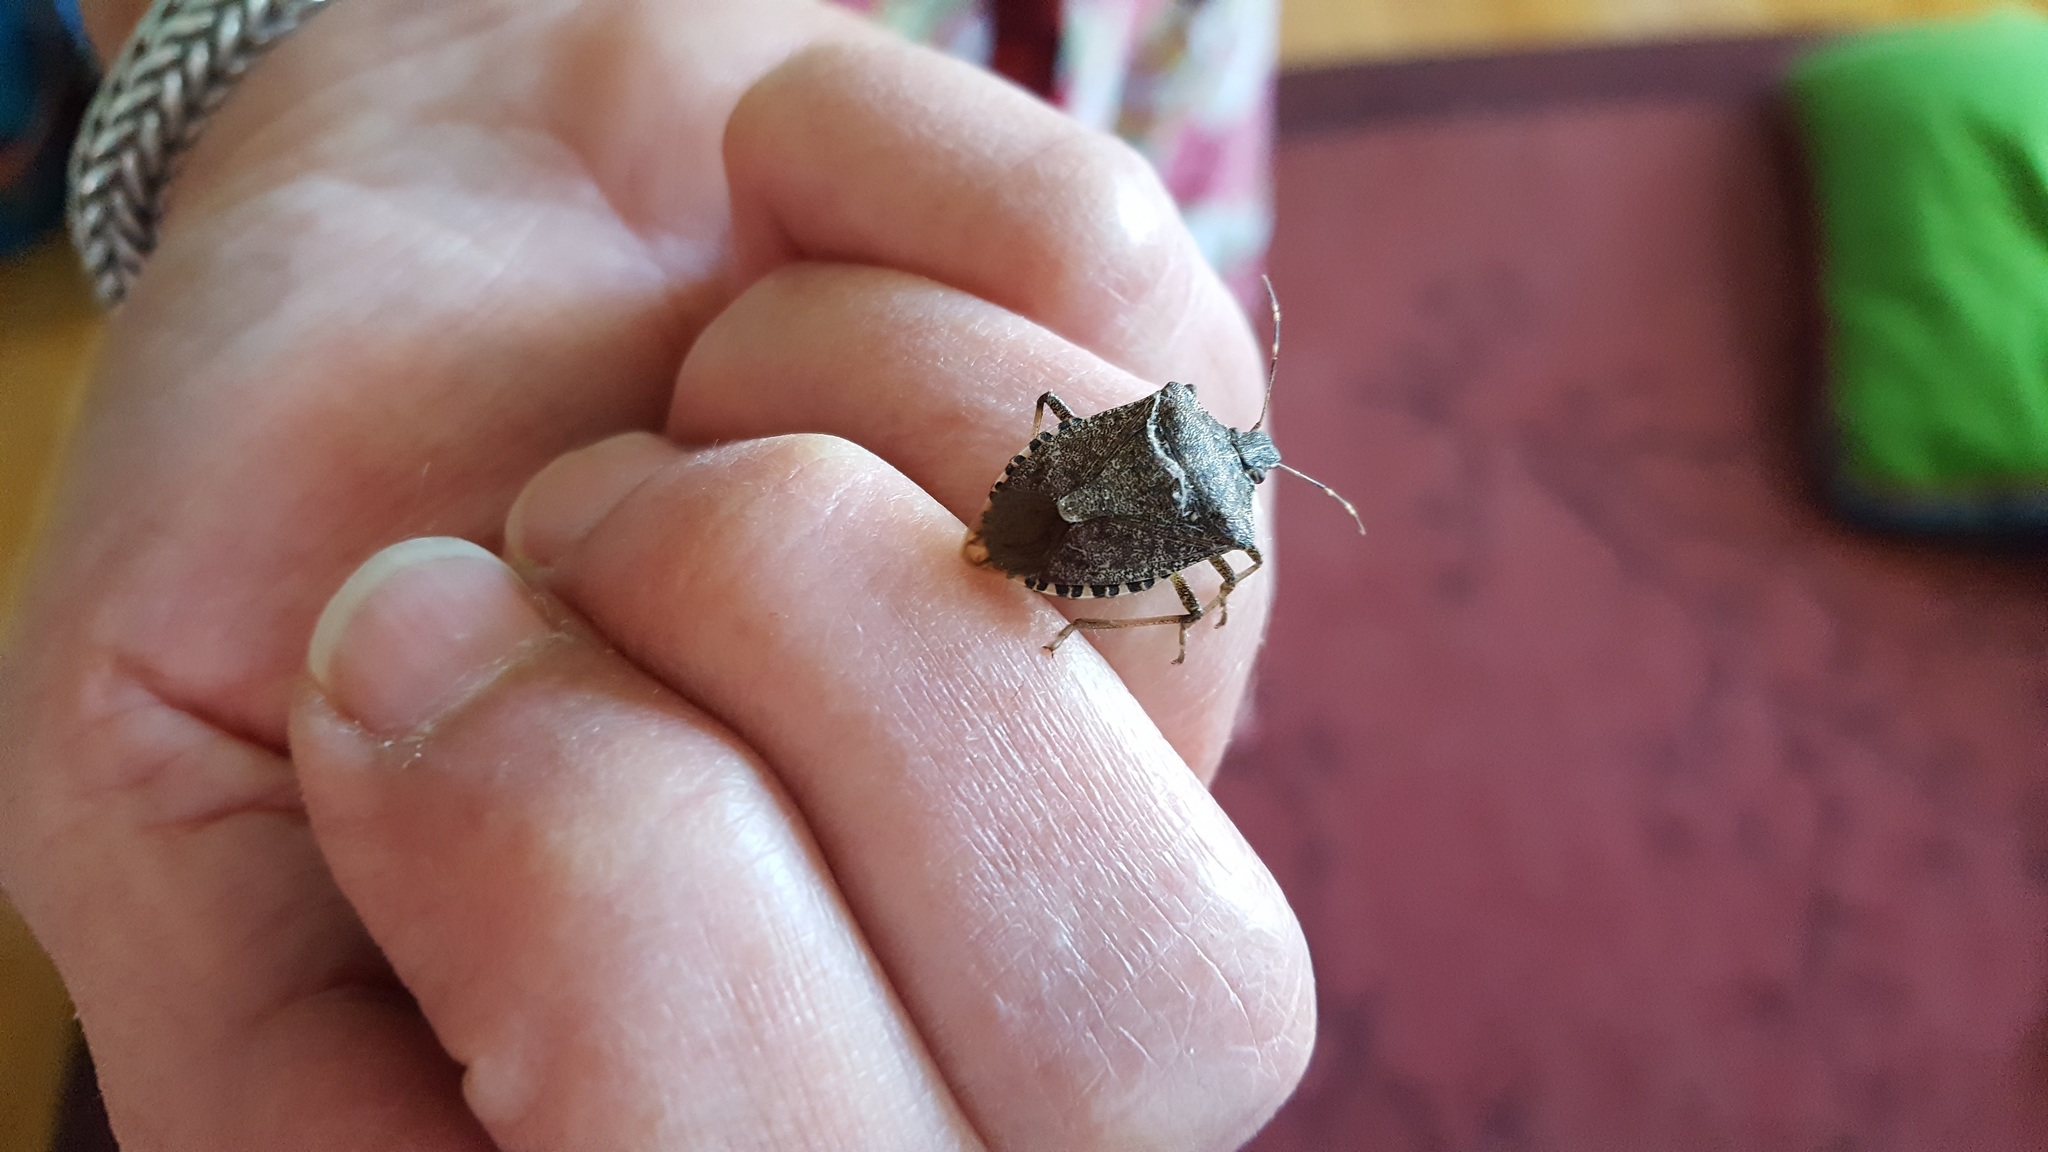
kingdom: Animalia
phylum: Arthropoda
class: Insecta
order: Hemiptera
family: Pentatomidae
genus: Halyomorpha
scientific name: Halyomorpha halys
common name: Brown marmorated stink bug
